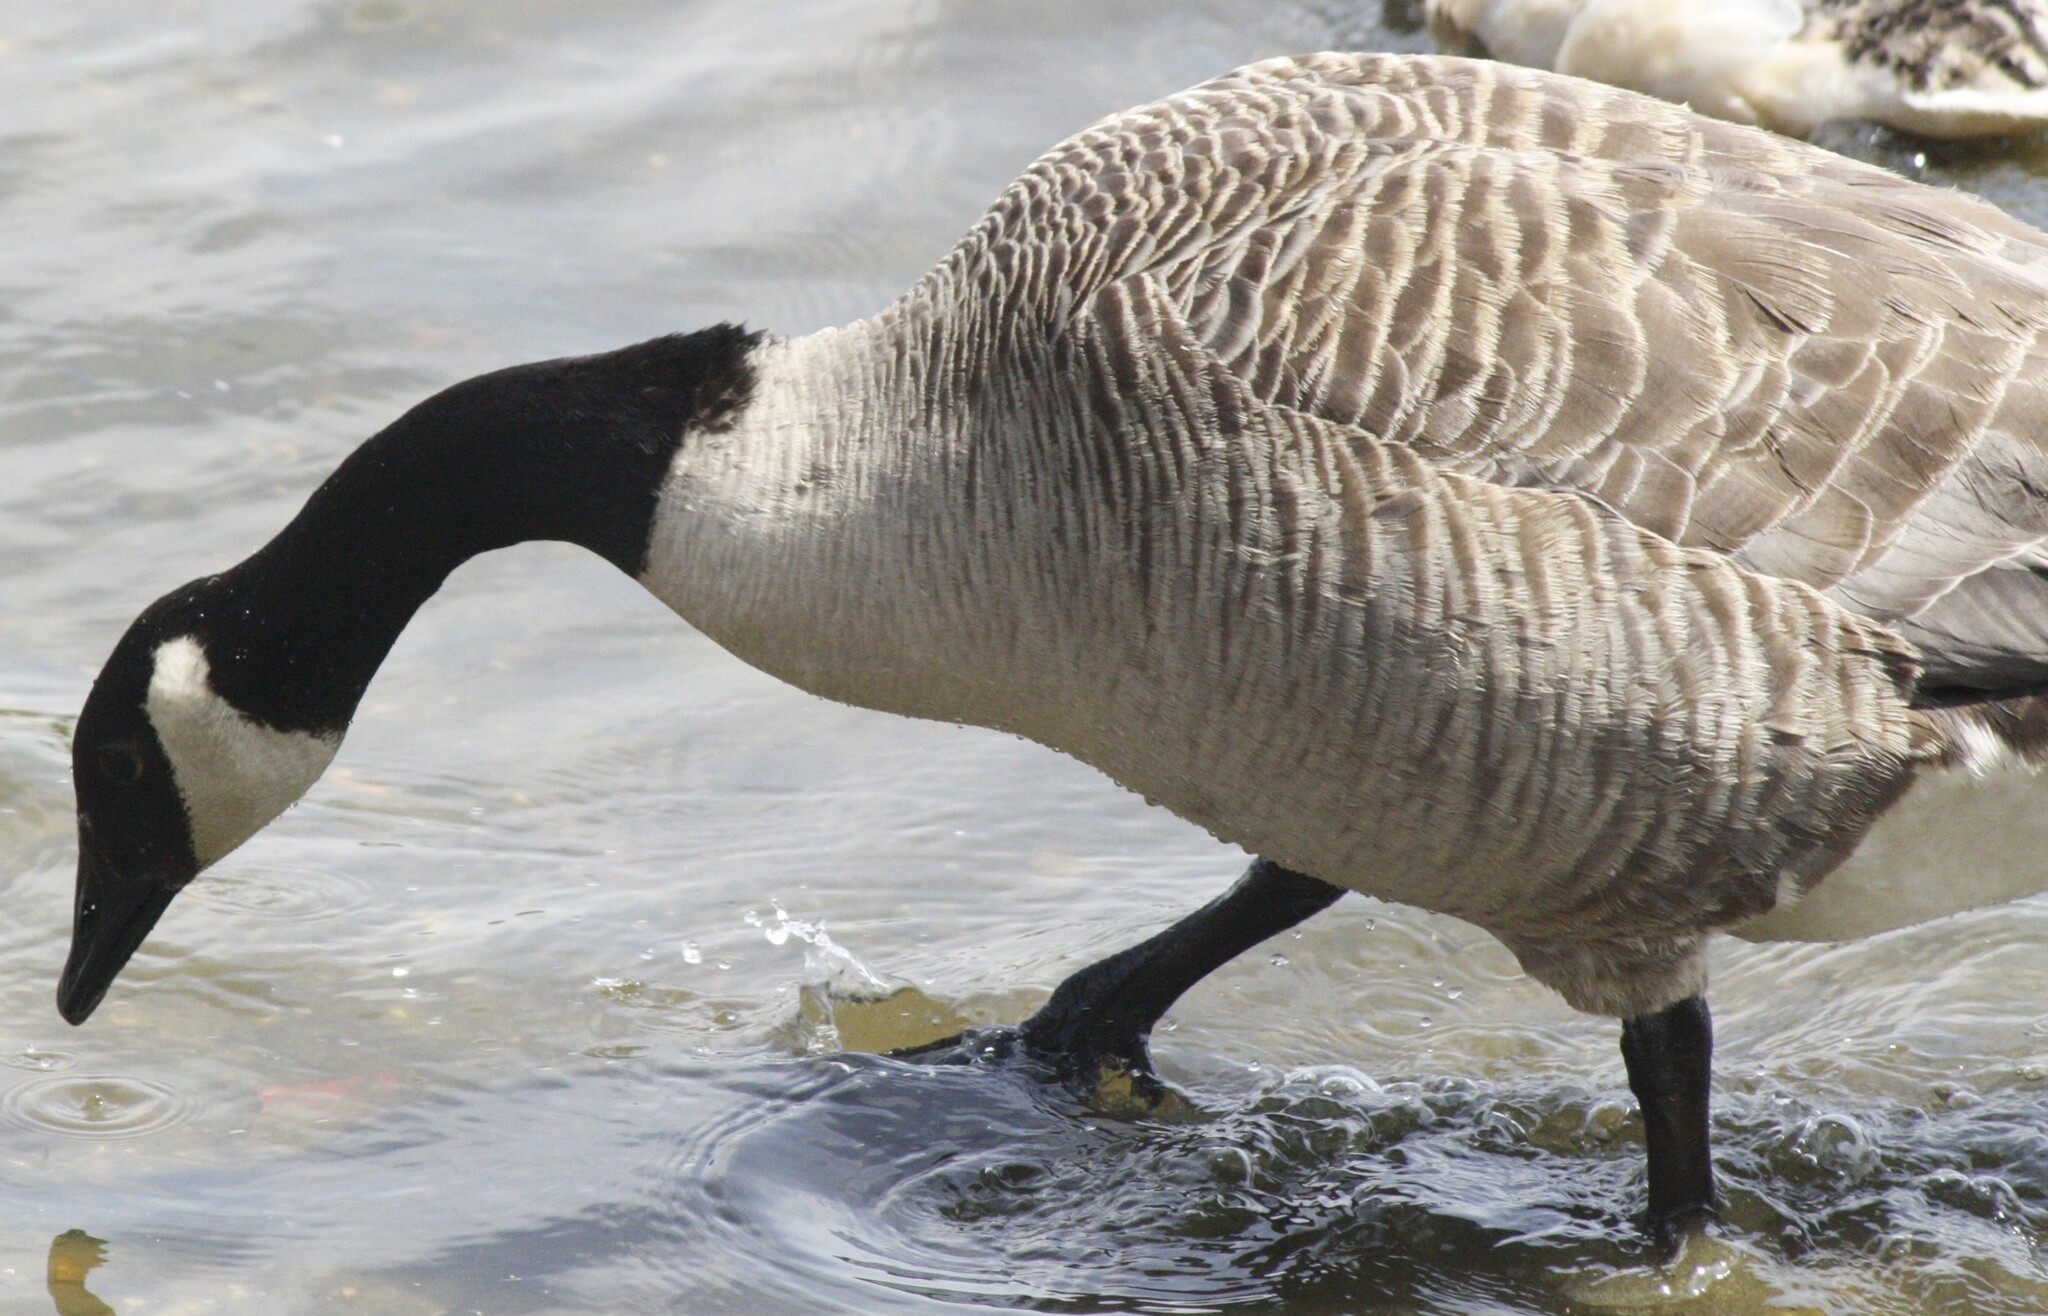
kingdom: Animalia
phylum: Chordata
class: Aves
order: Anseriformes
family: Anatidae
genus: Branta
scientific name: Branta canadensis
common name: Canada goose
